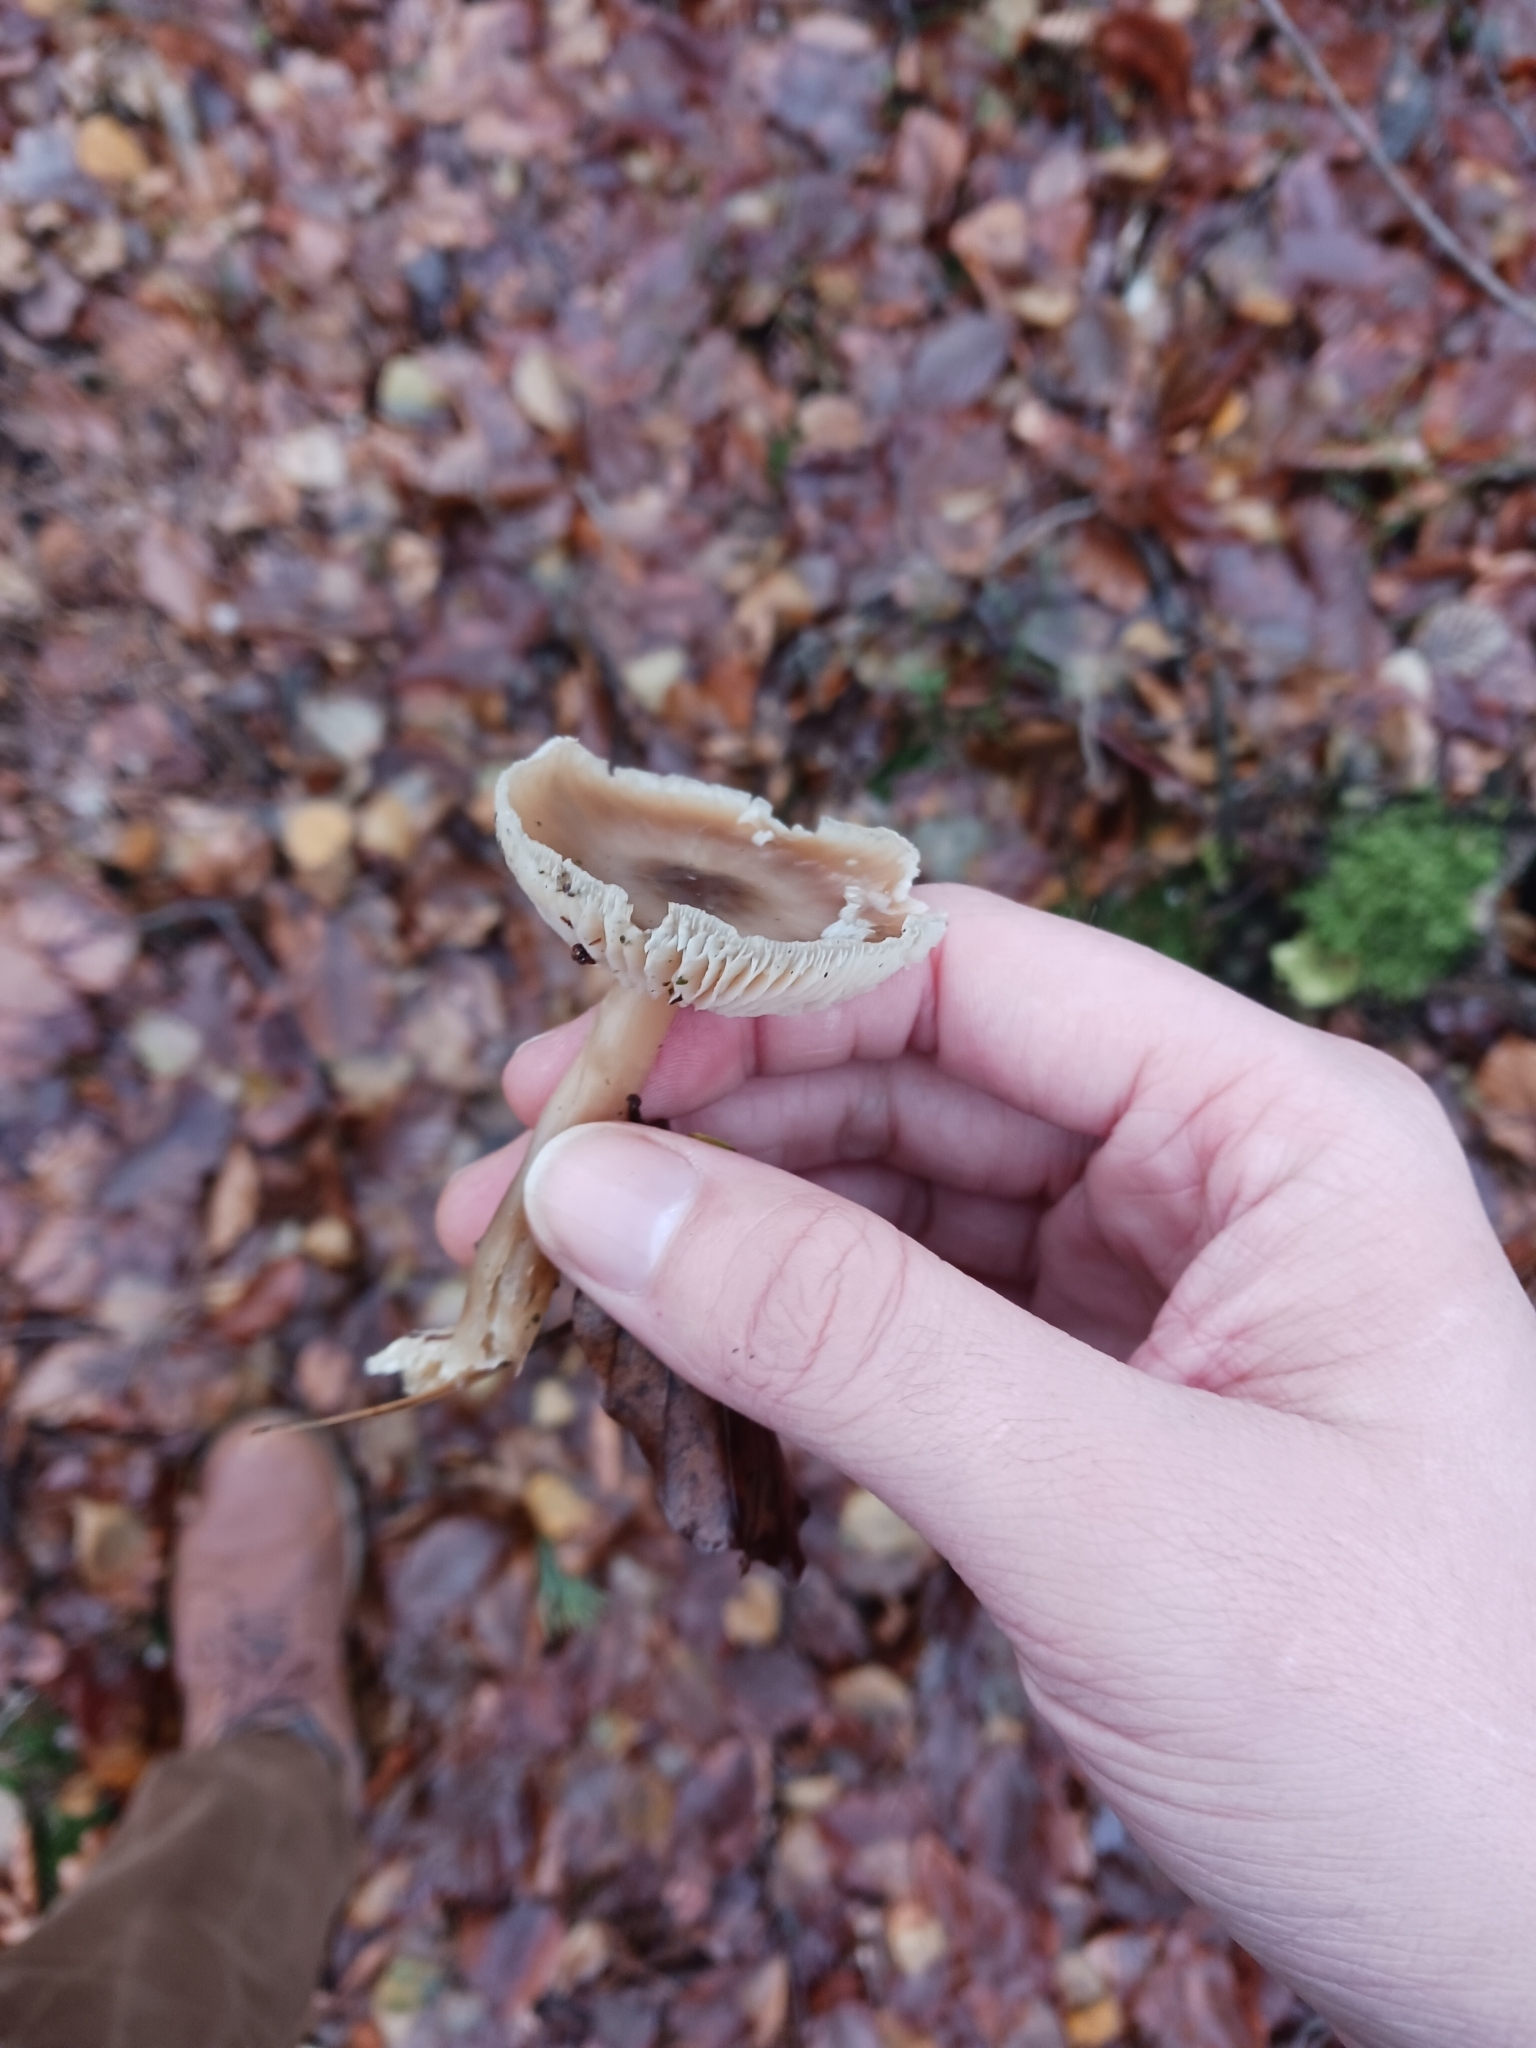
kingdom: Fungi
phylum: Basidiomycota
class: Agaricomycetes
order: Agaricales
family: Omphalotaceae
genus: Rhodocollybia
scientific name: Rhodocollybia butyracea
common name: Butter cap
